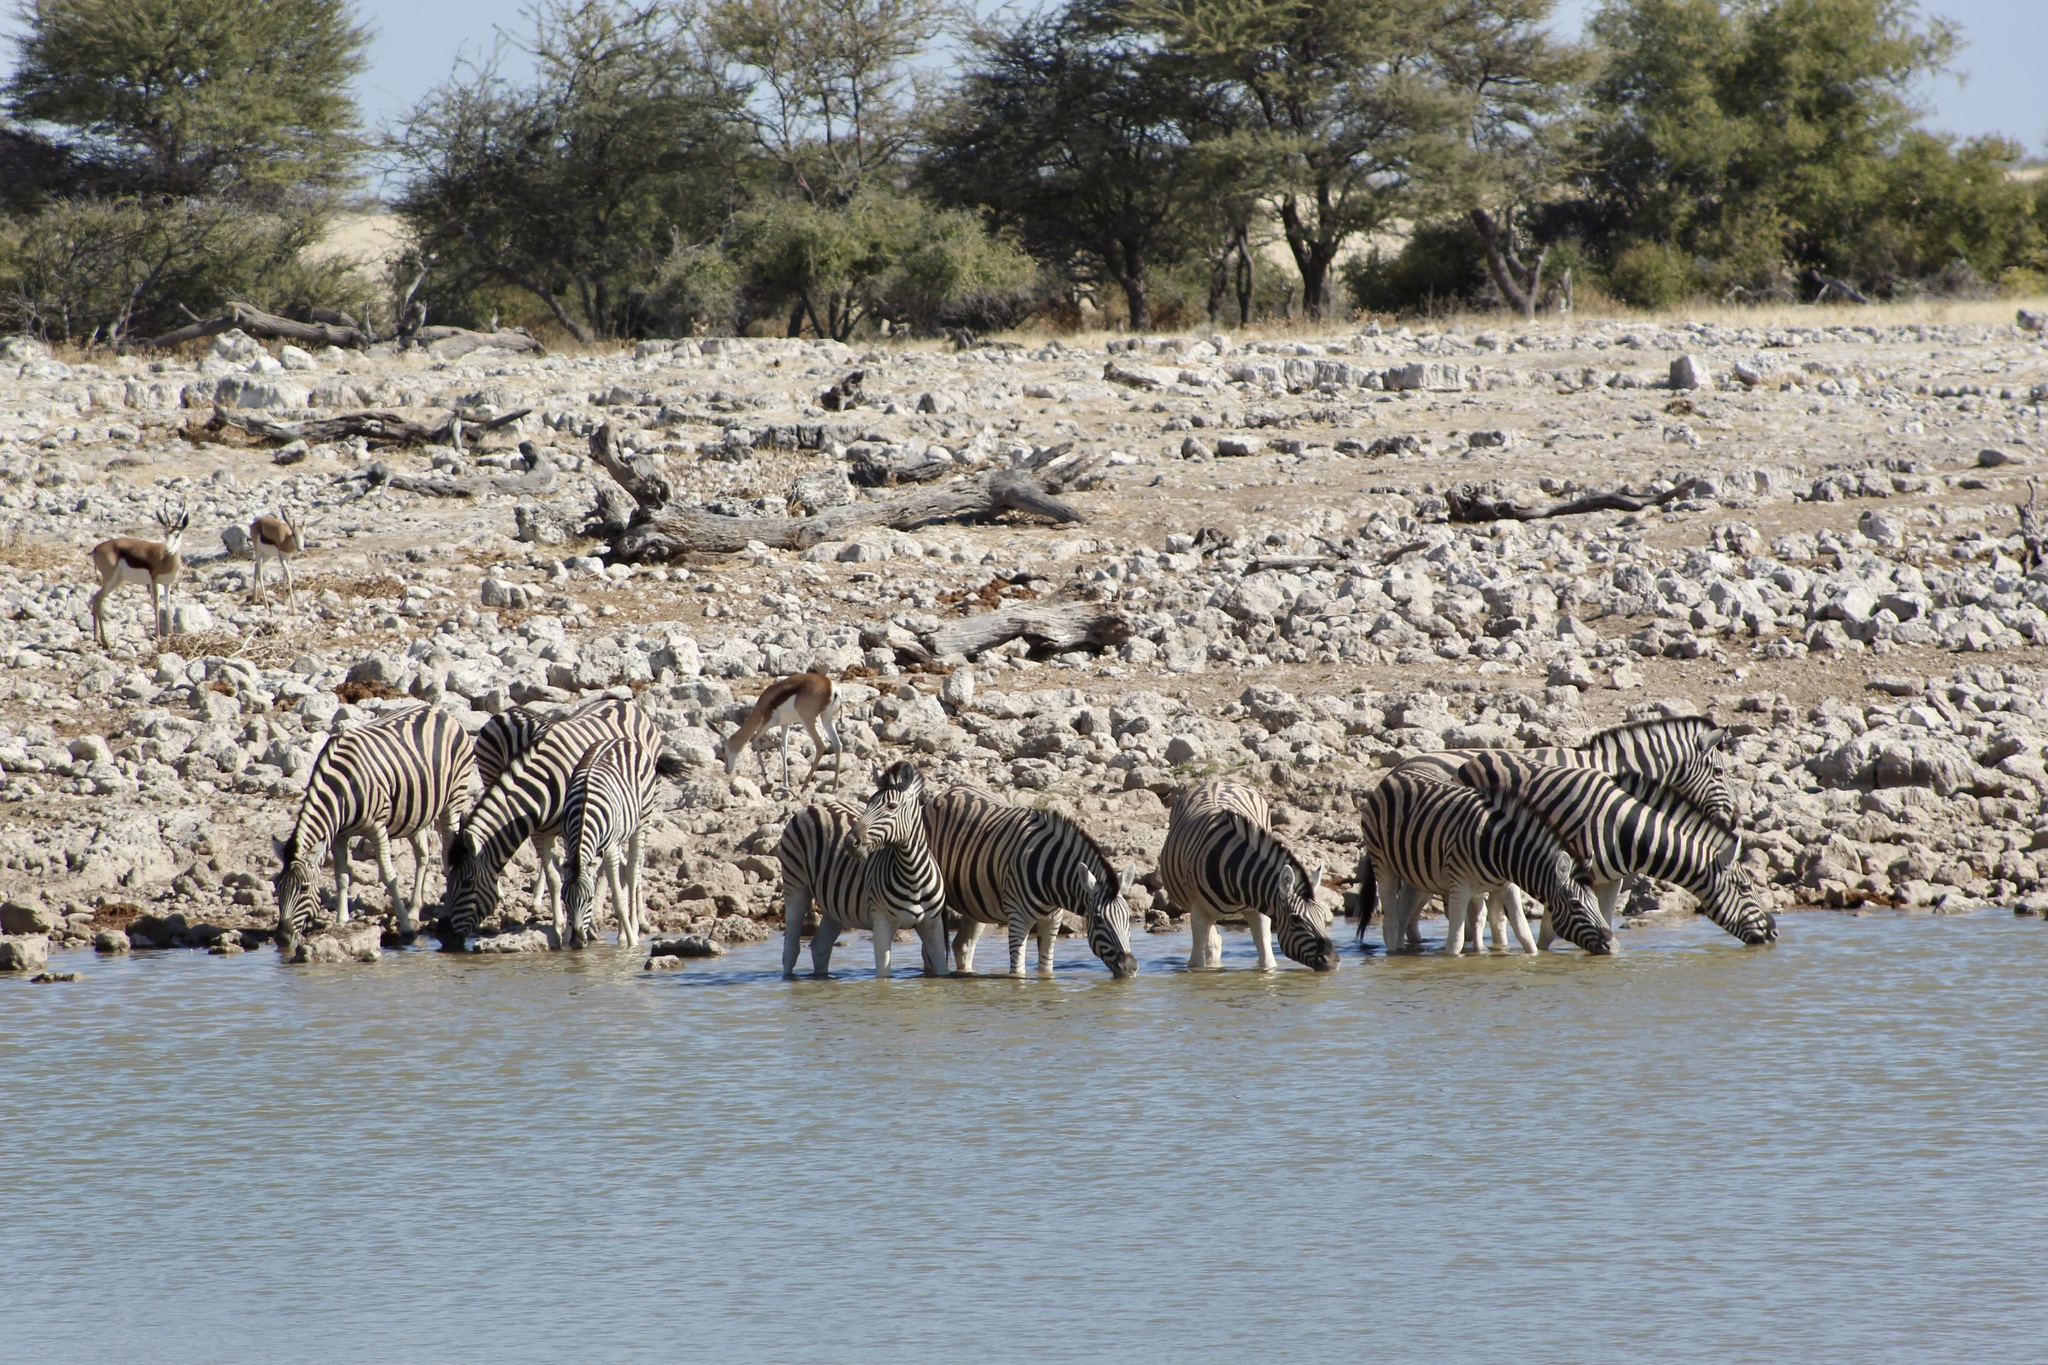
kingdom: Animalia
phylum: Chordata
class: Mammalia
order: Perissodactyla
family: Equidae
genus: Equus
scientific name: Equus quagga
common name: Plains zebra
